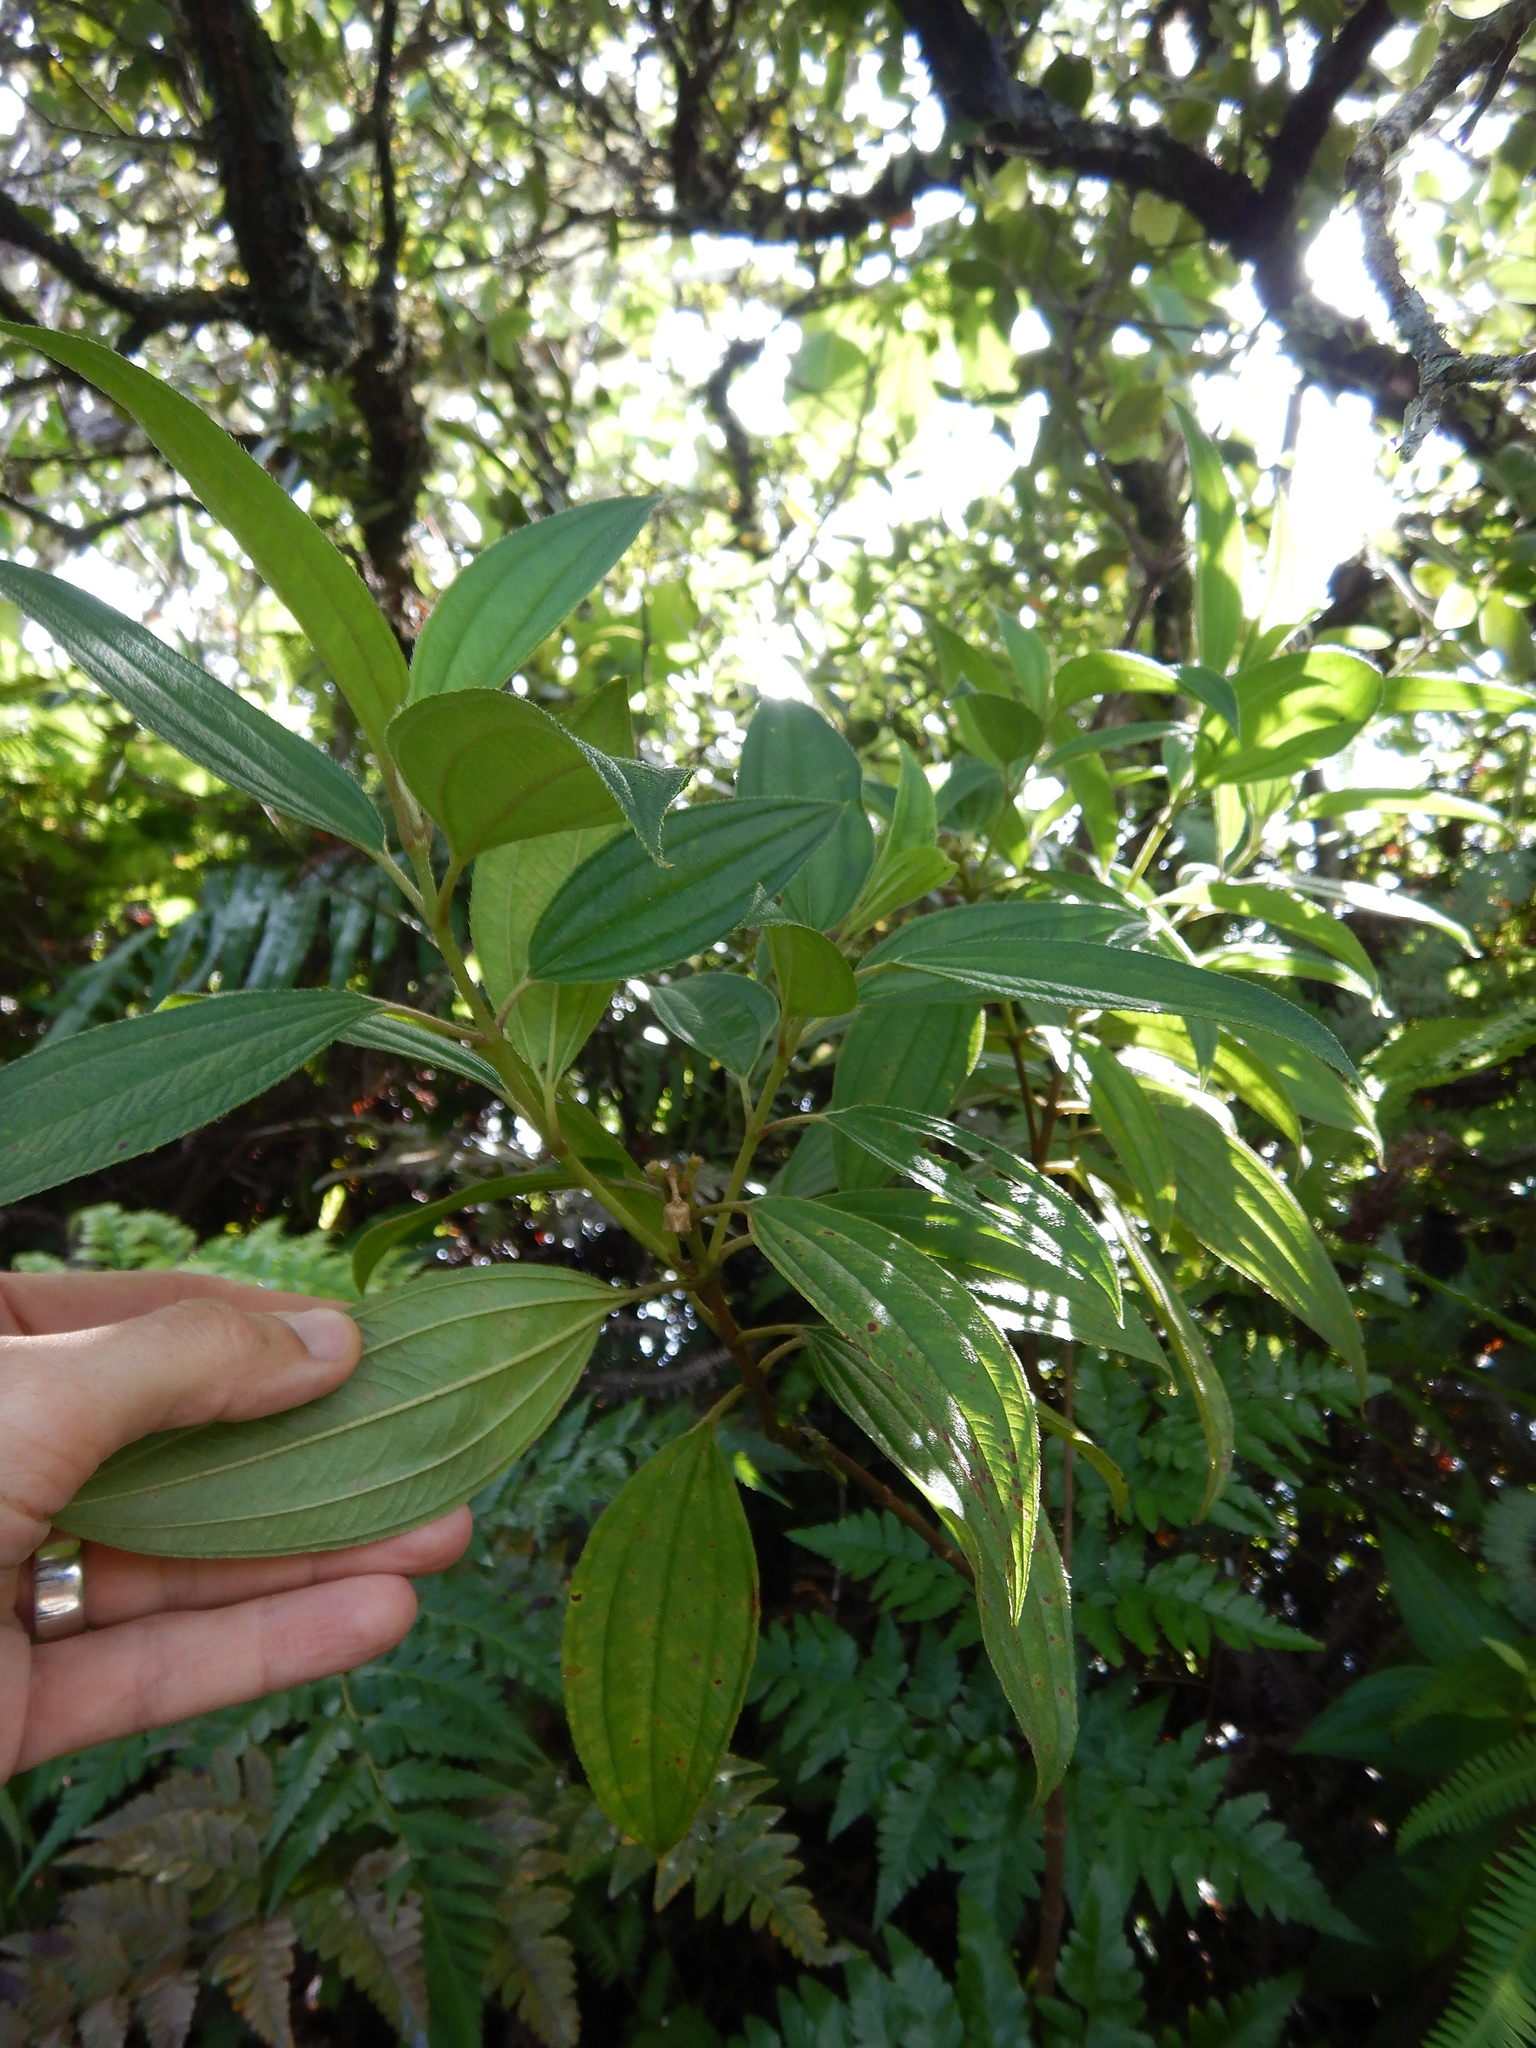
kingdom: Plantae
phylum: Tracheophyta
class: Magnoliopsida
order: Myrtales
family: Melastomataceae
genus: Melastoma
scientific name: Melastoma denticulatum
